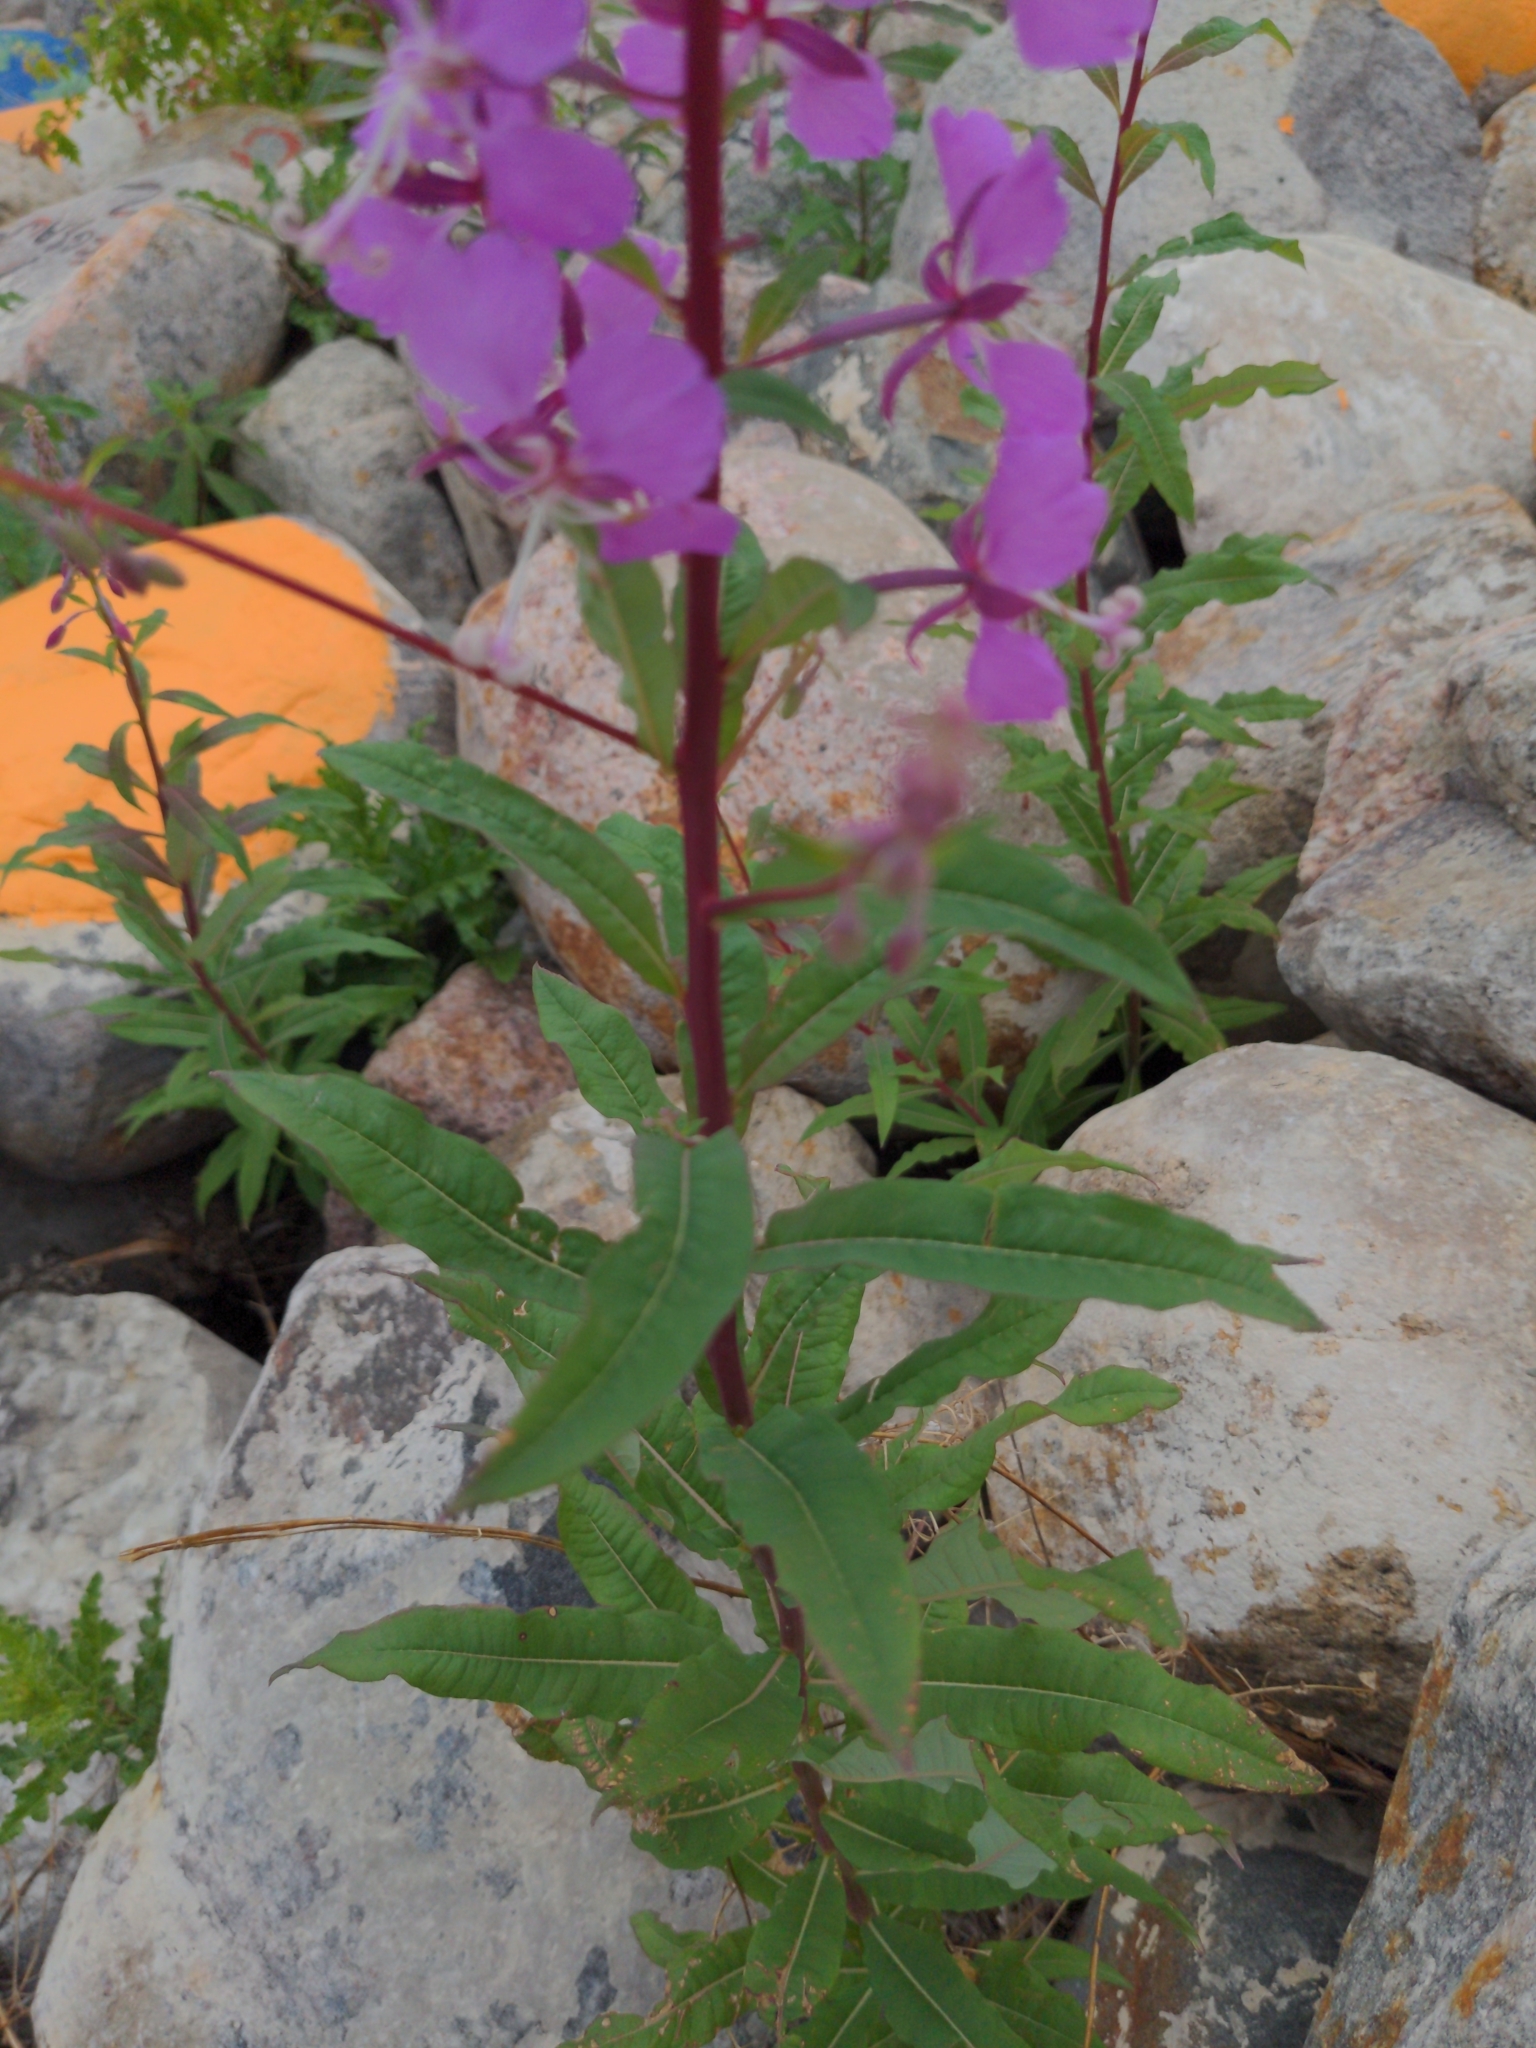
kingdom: Plantae
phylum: Tracheophyta
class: Magnoliopsida
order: Myrtales
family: Onagraceae
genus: Chamaenerion
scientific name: Chamaenerion angustifolium
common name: Fireweed
